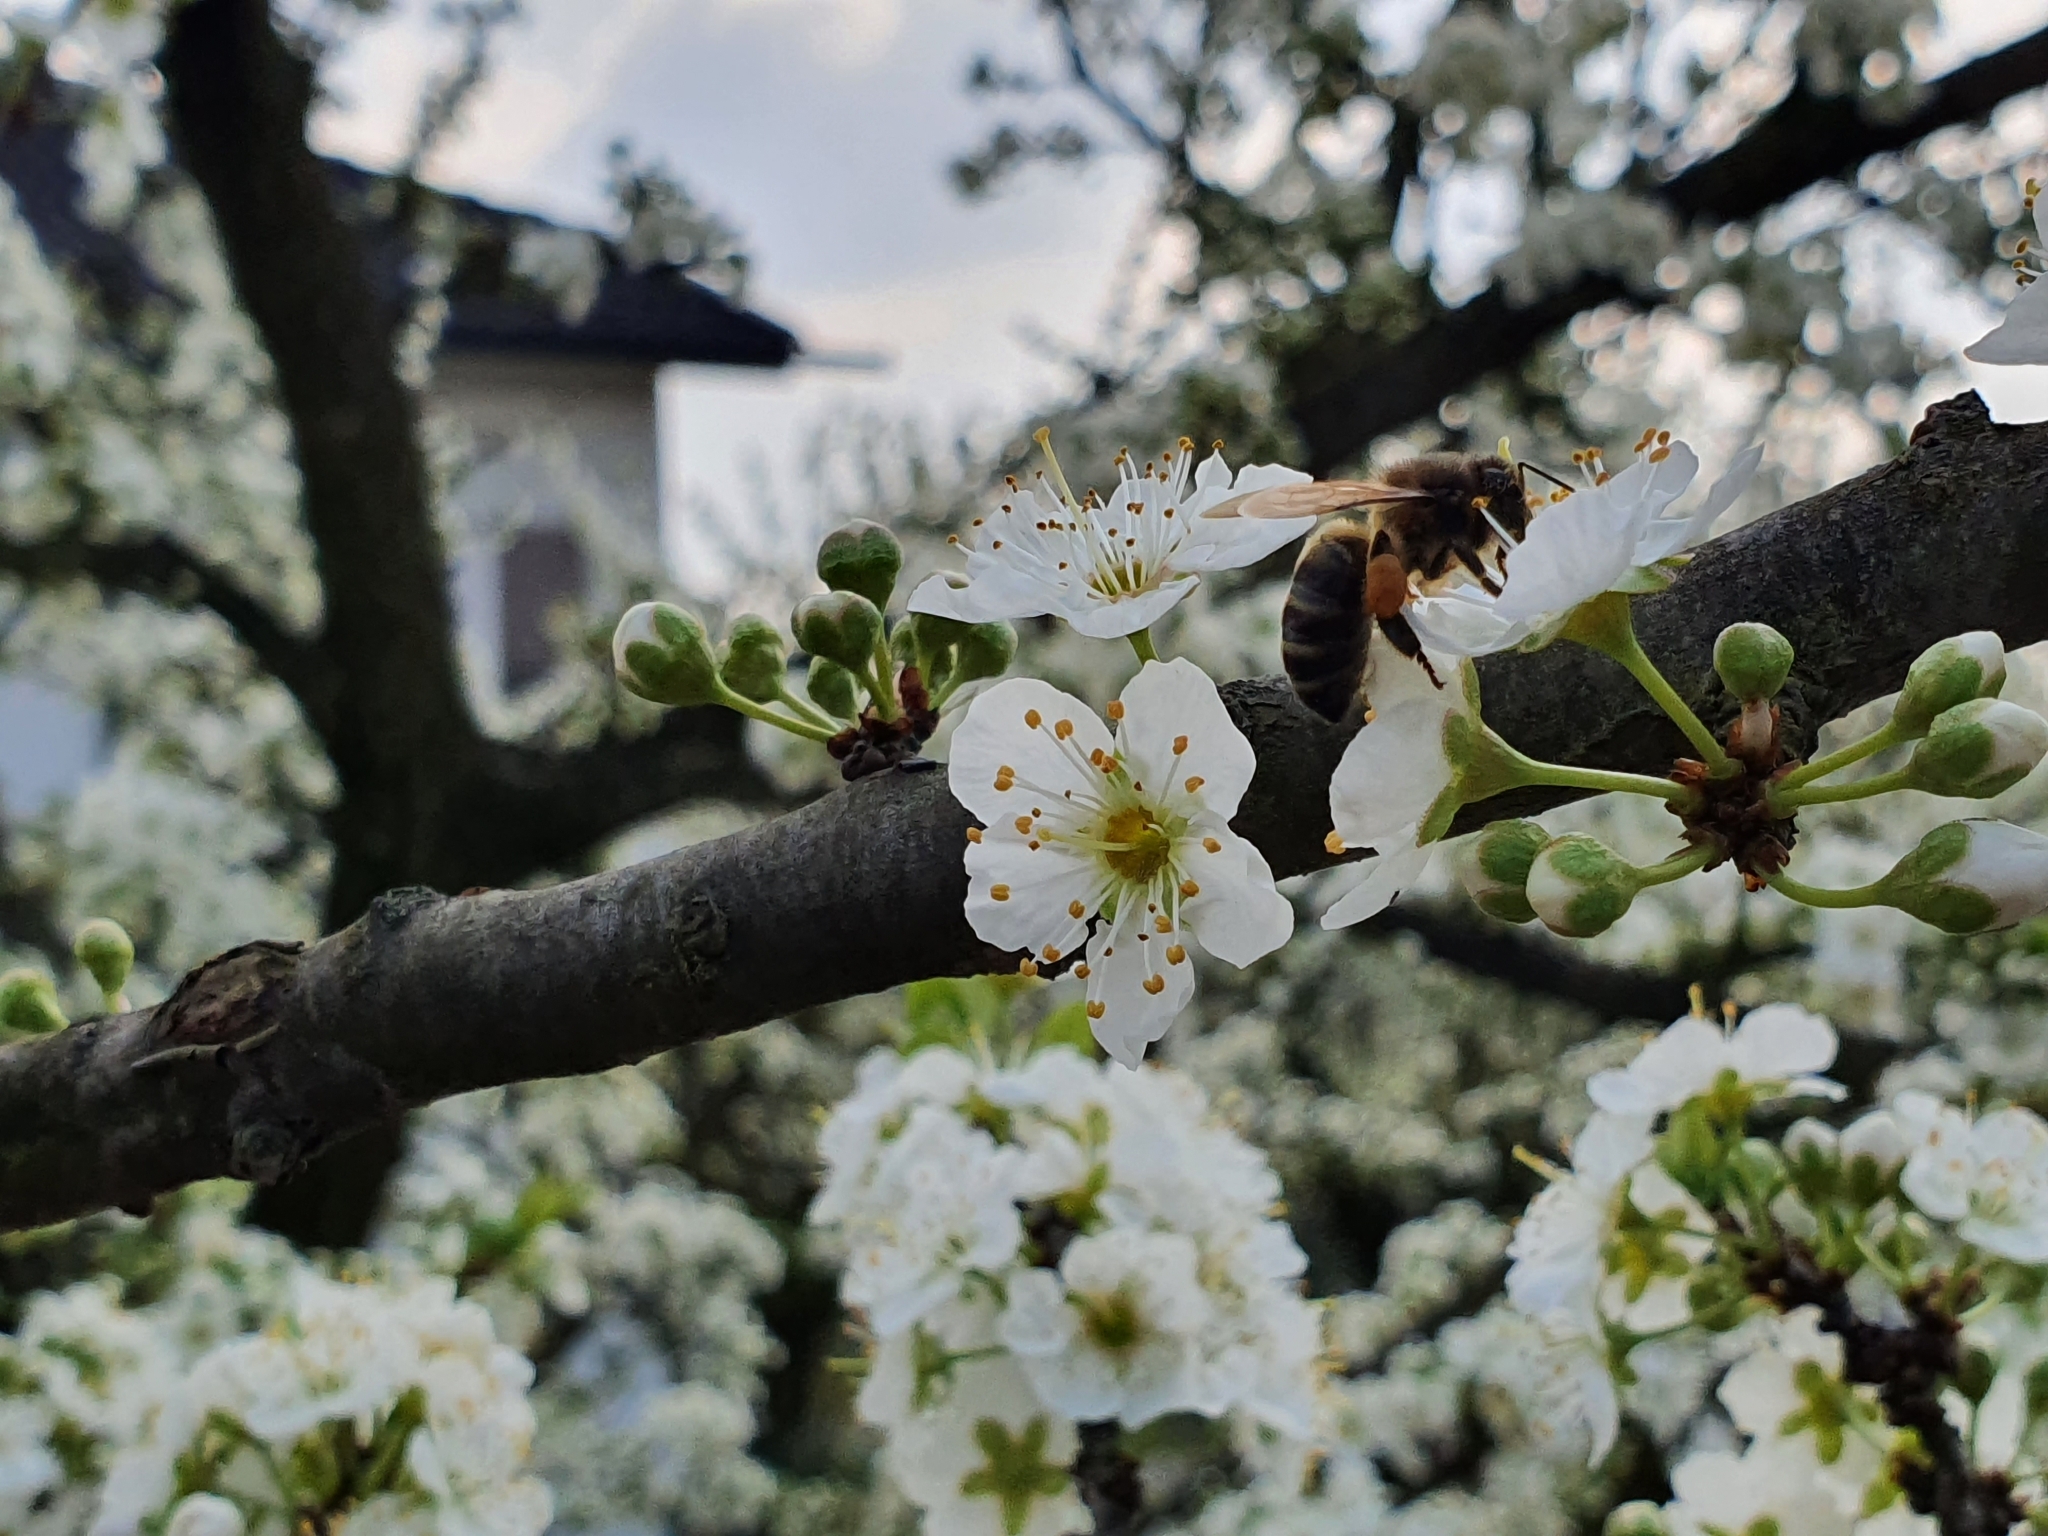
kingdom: Animalia
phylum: Arthropoda
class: Insecta
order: Hymenoptera
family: Apidae
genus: Apis
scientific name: Apis mellifera
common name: Honey bee
